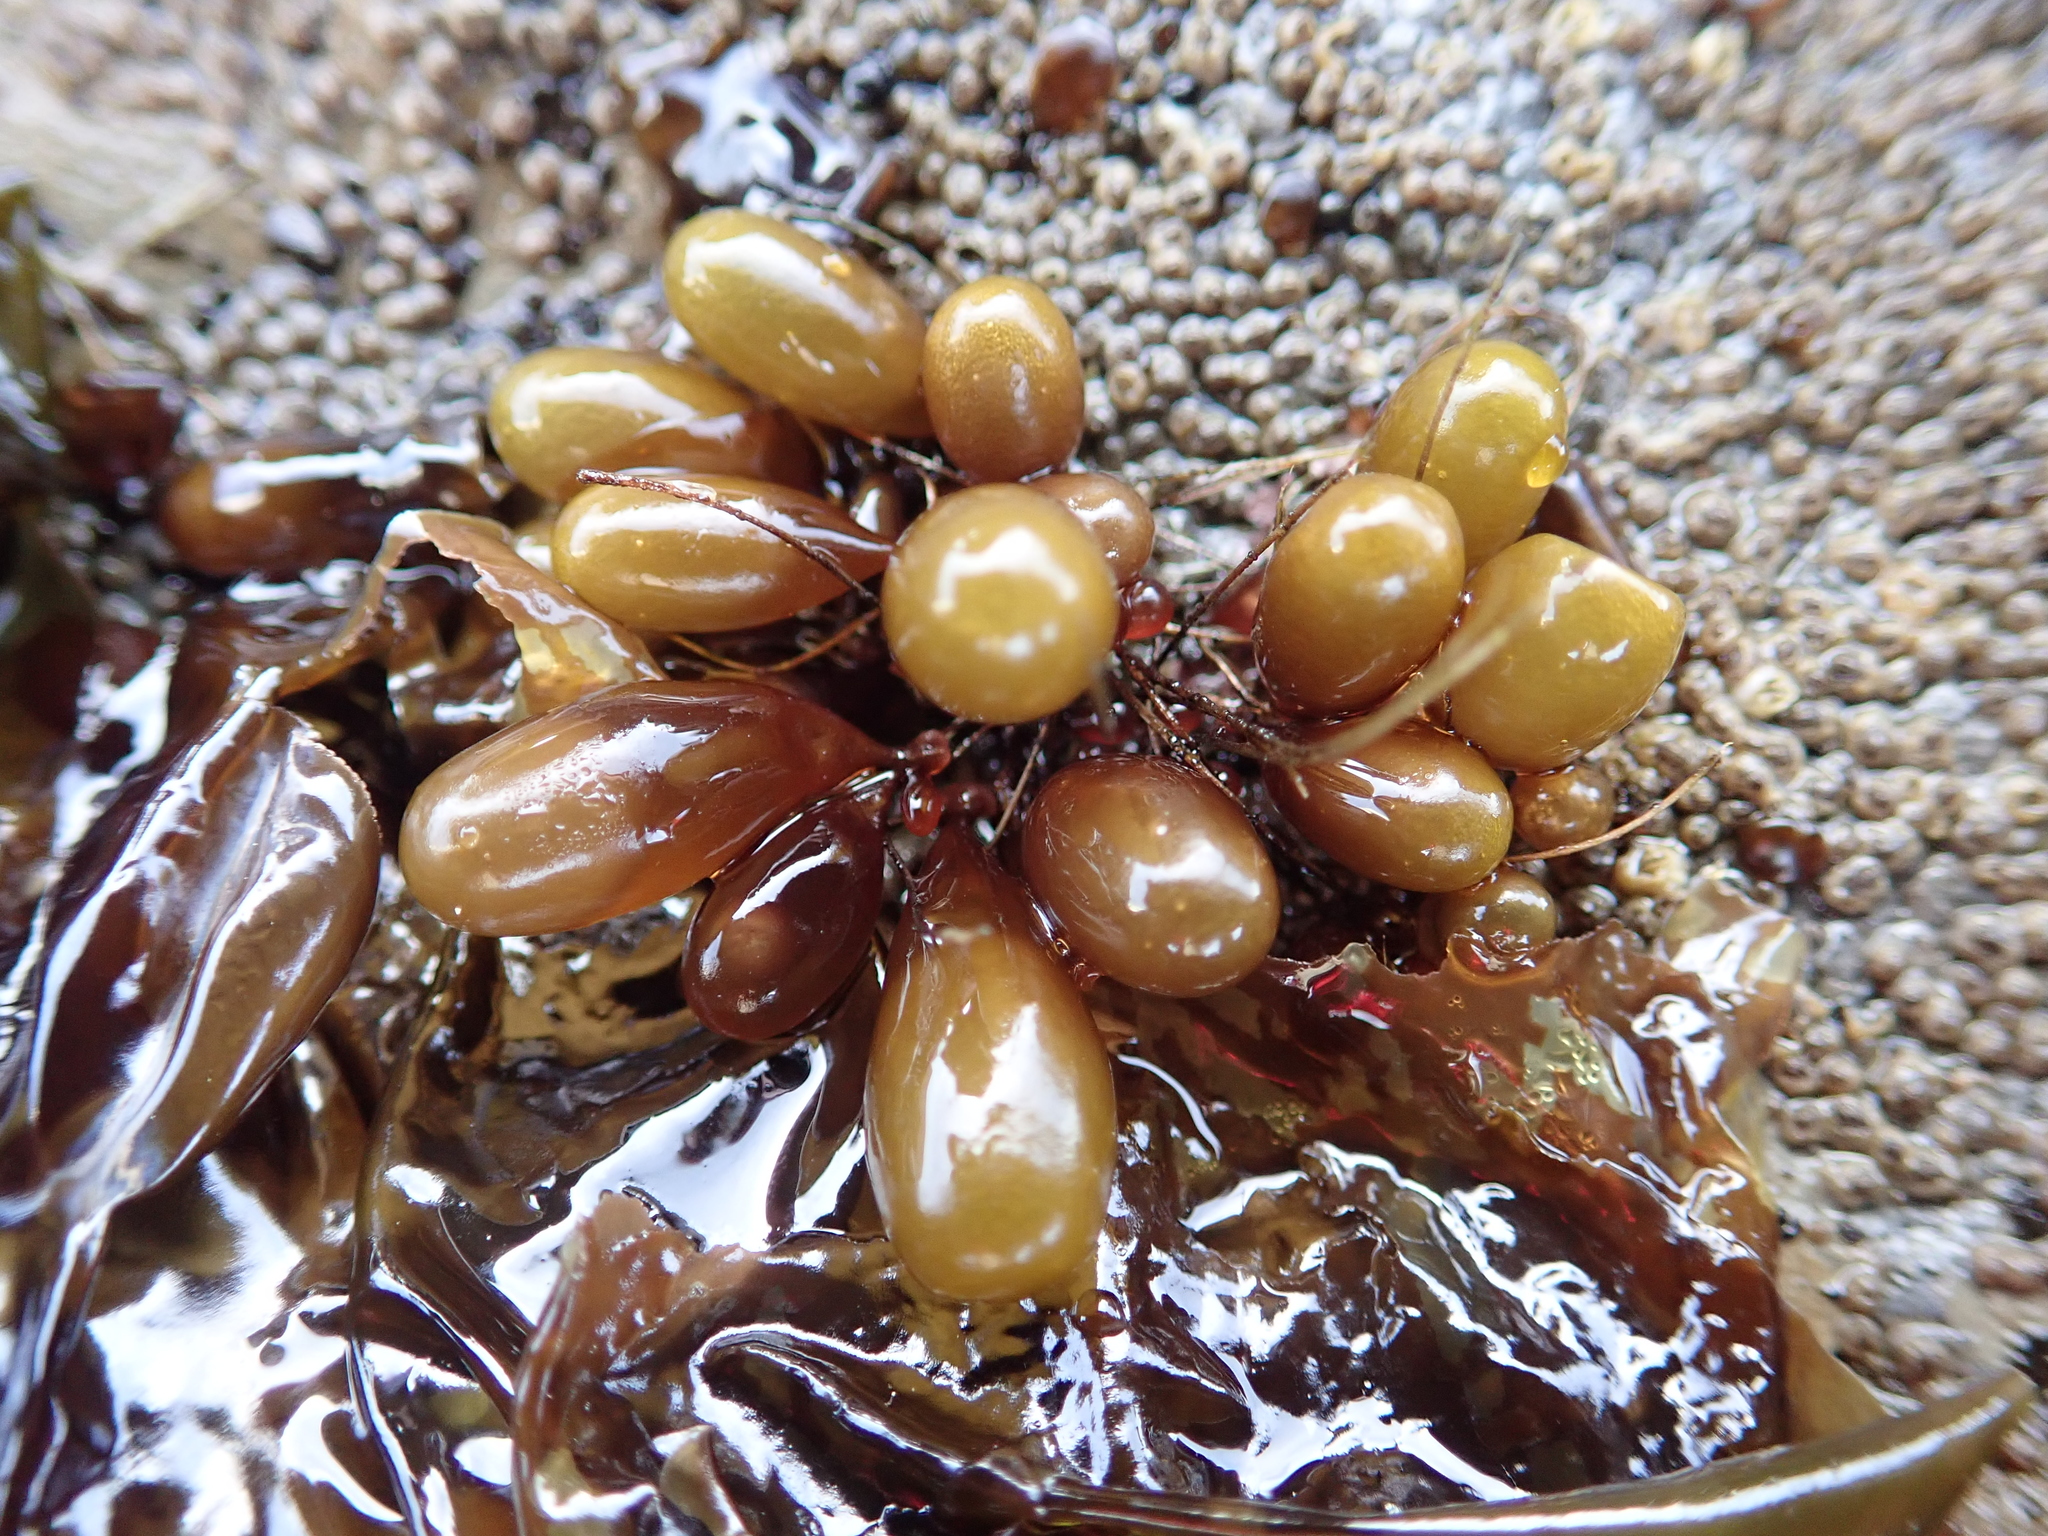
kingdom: Plantae
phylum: Rhodophyta
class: Florideophyceae
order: Palmariales
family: Palmariaceae
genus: Halosaccion
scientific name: Halosaccion glandiforme
